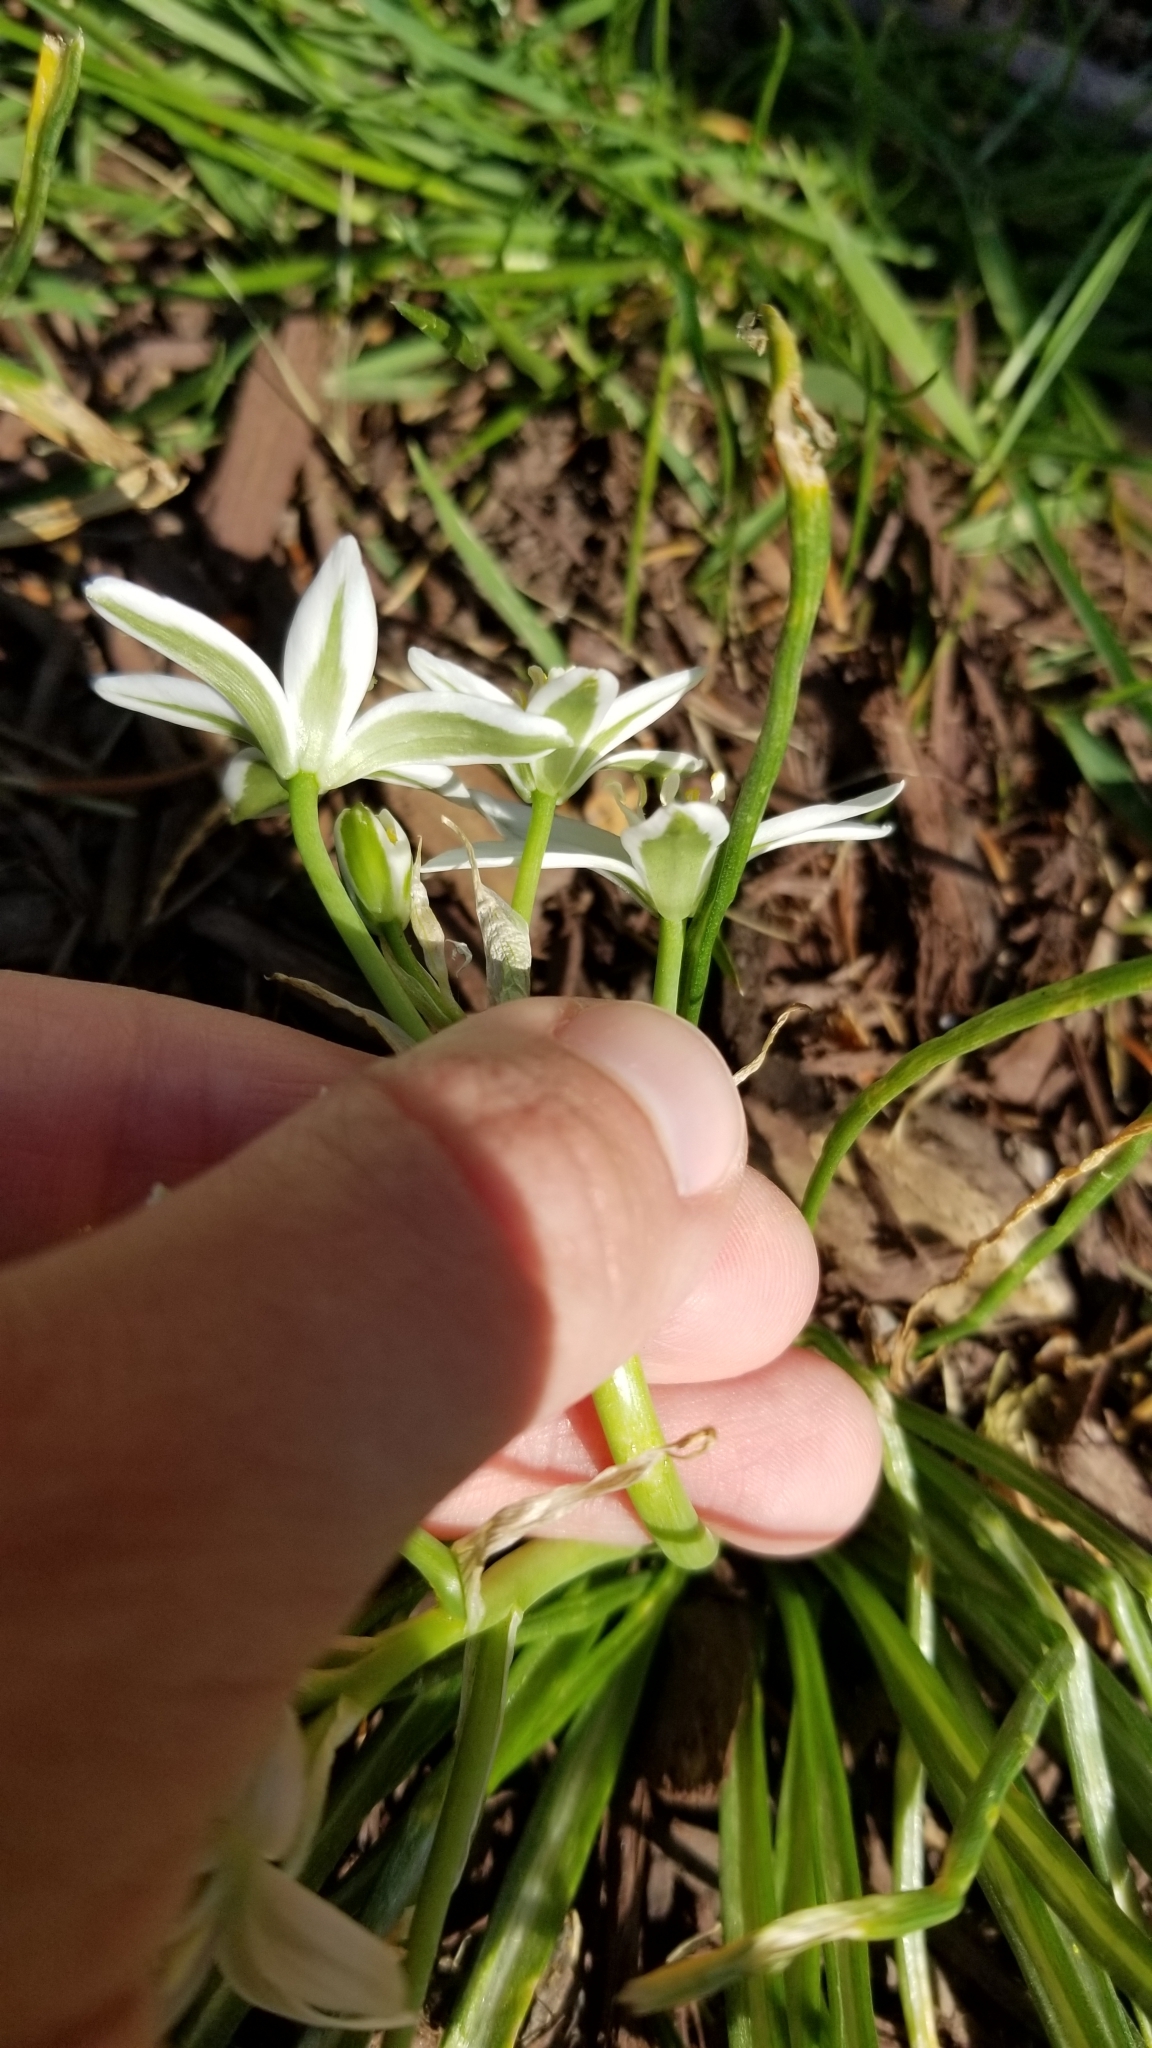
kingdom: Plantae
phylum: Tracheophyta
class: Liliopsida
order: Asparagales
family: Asparagaceae
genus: Ornithogalum
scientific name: Ornithogalum umbellatum
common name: Garden star-of-bethlehem
